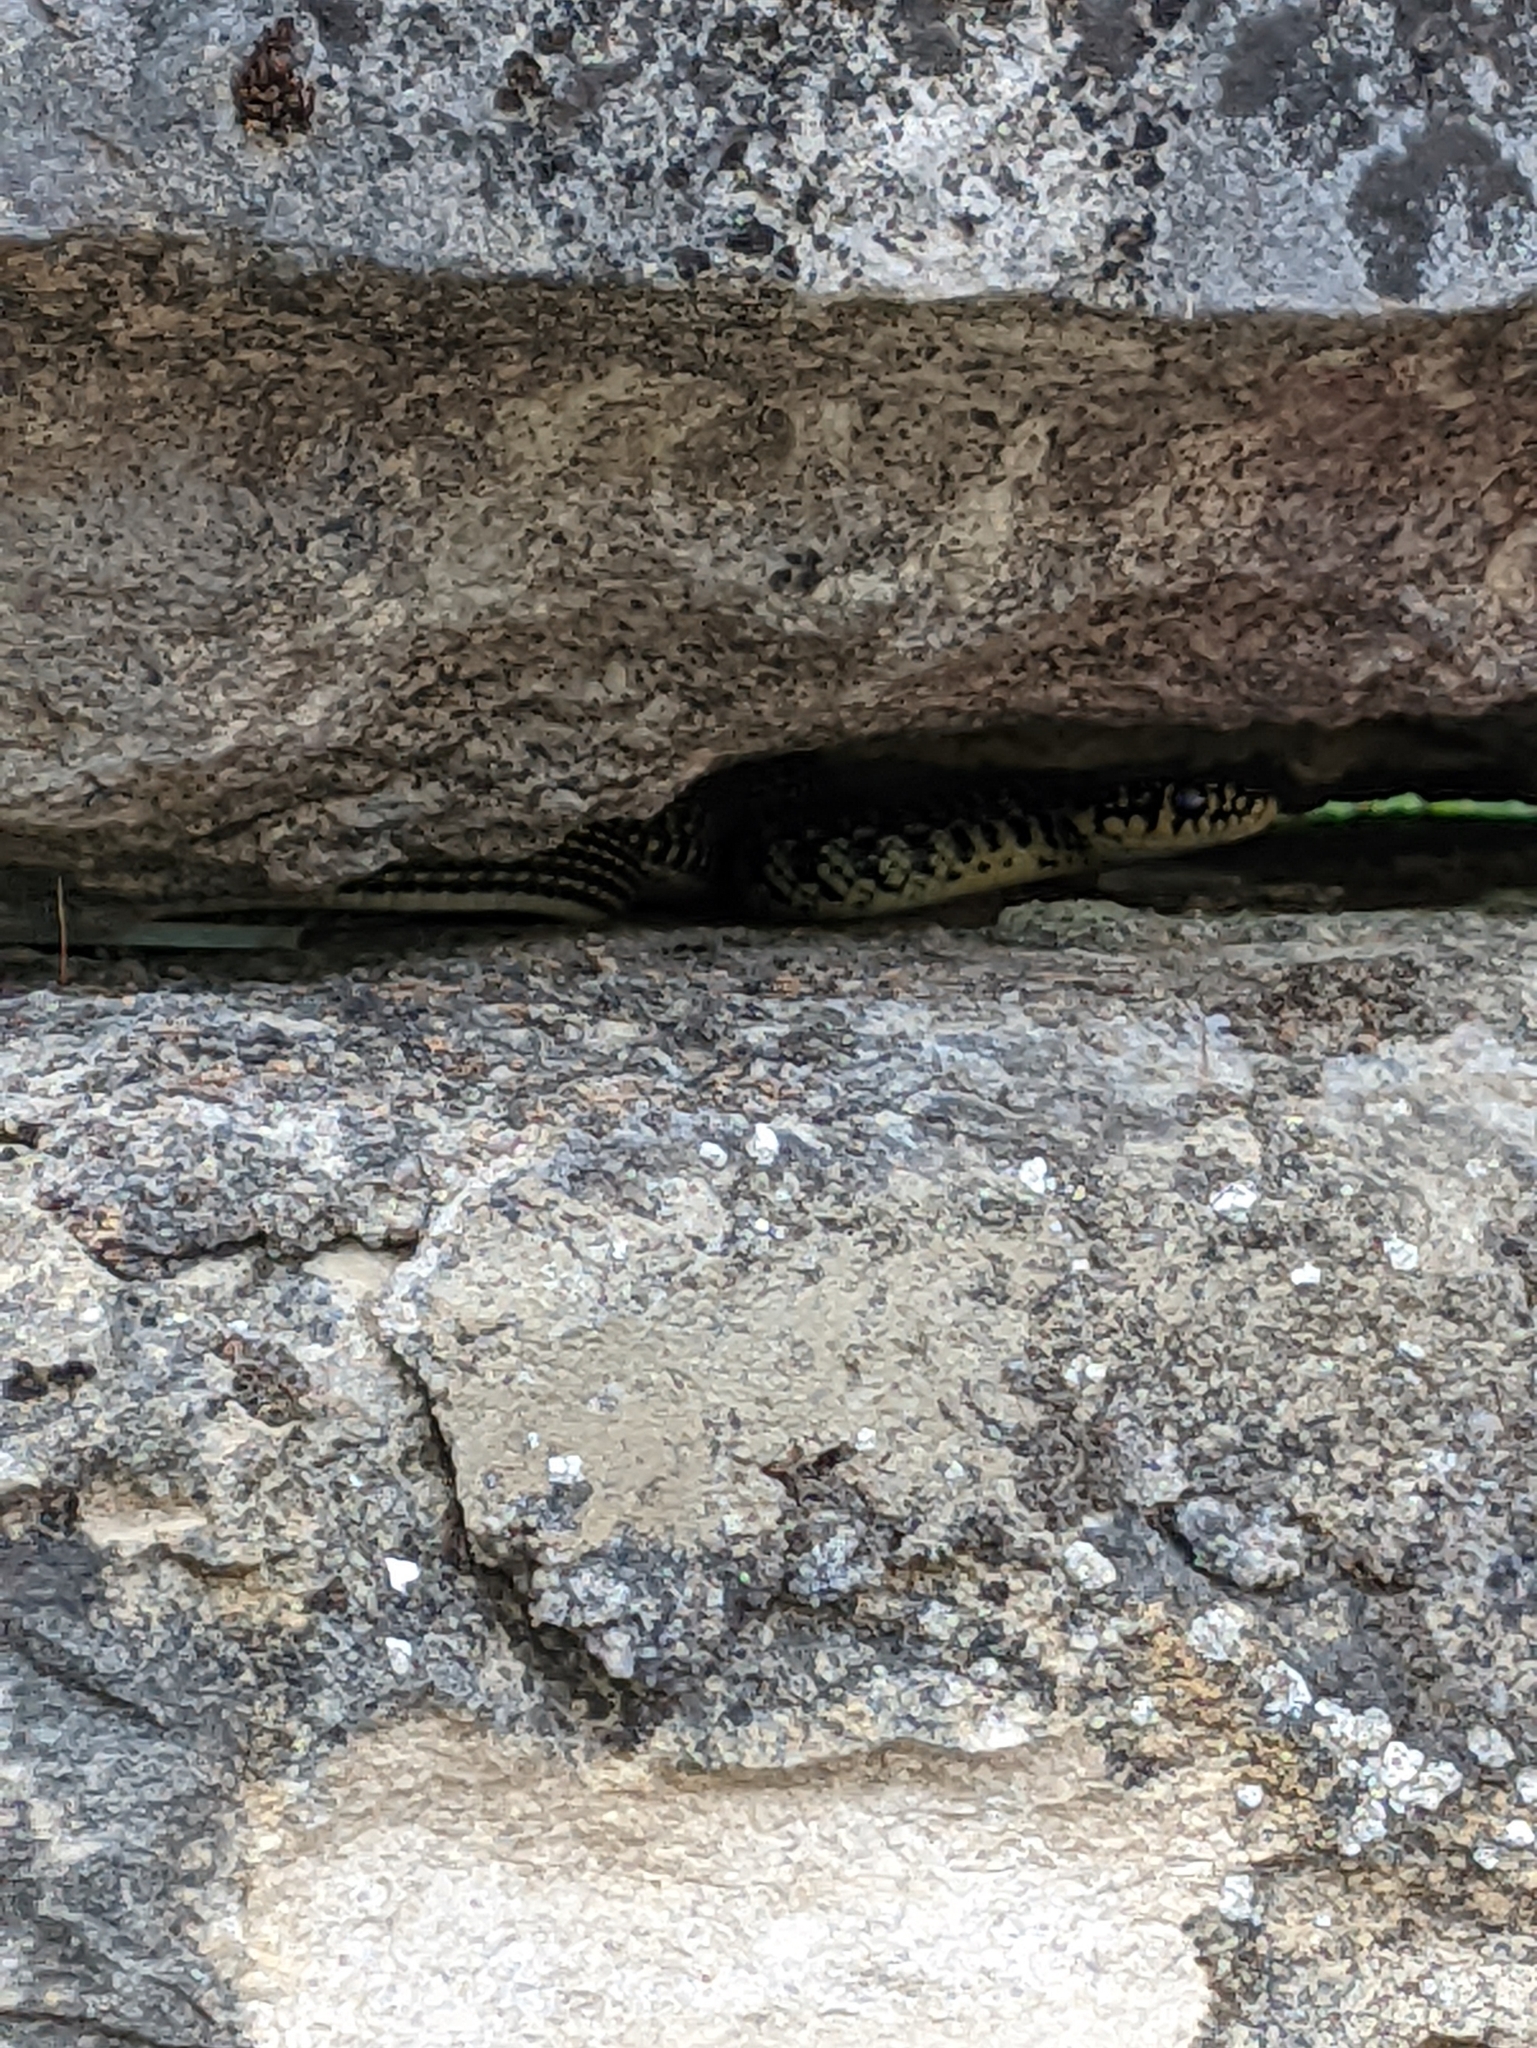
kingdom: Animalia
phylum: Chordata
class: Squamata
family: Colubridae
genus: Hierophis
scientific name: Hierophis viridiflavus
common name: Green whip snake
